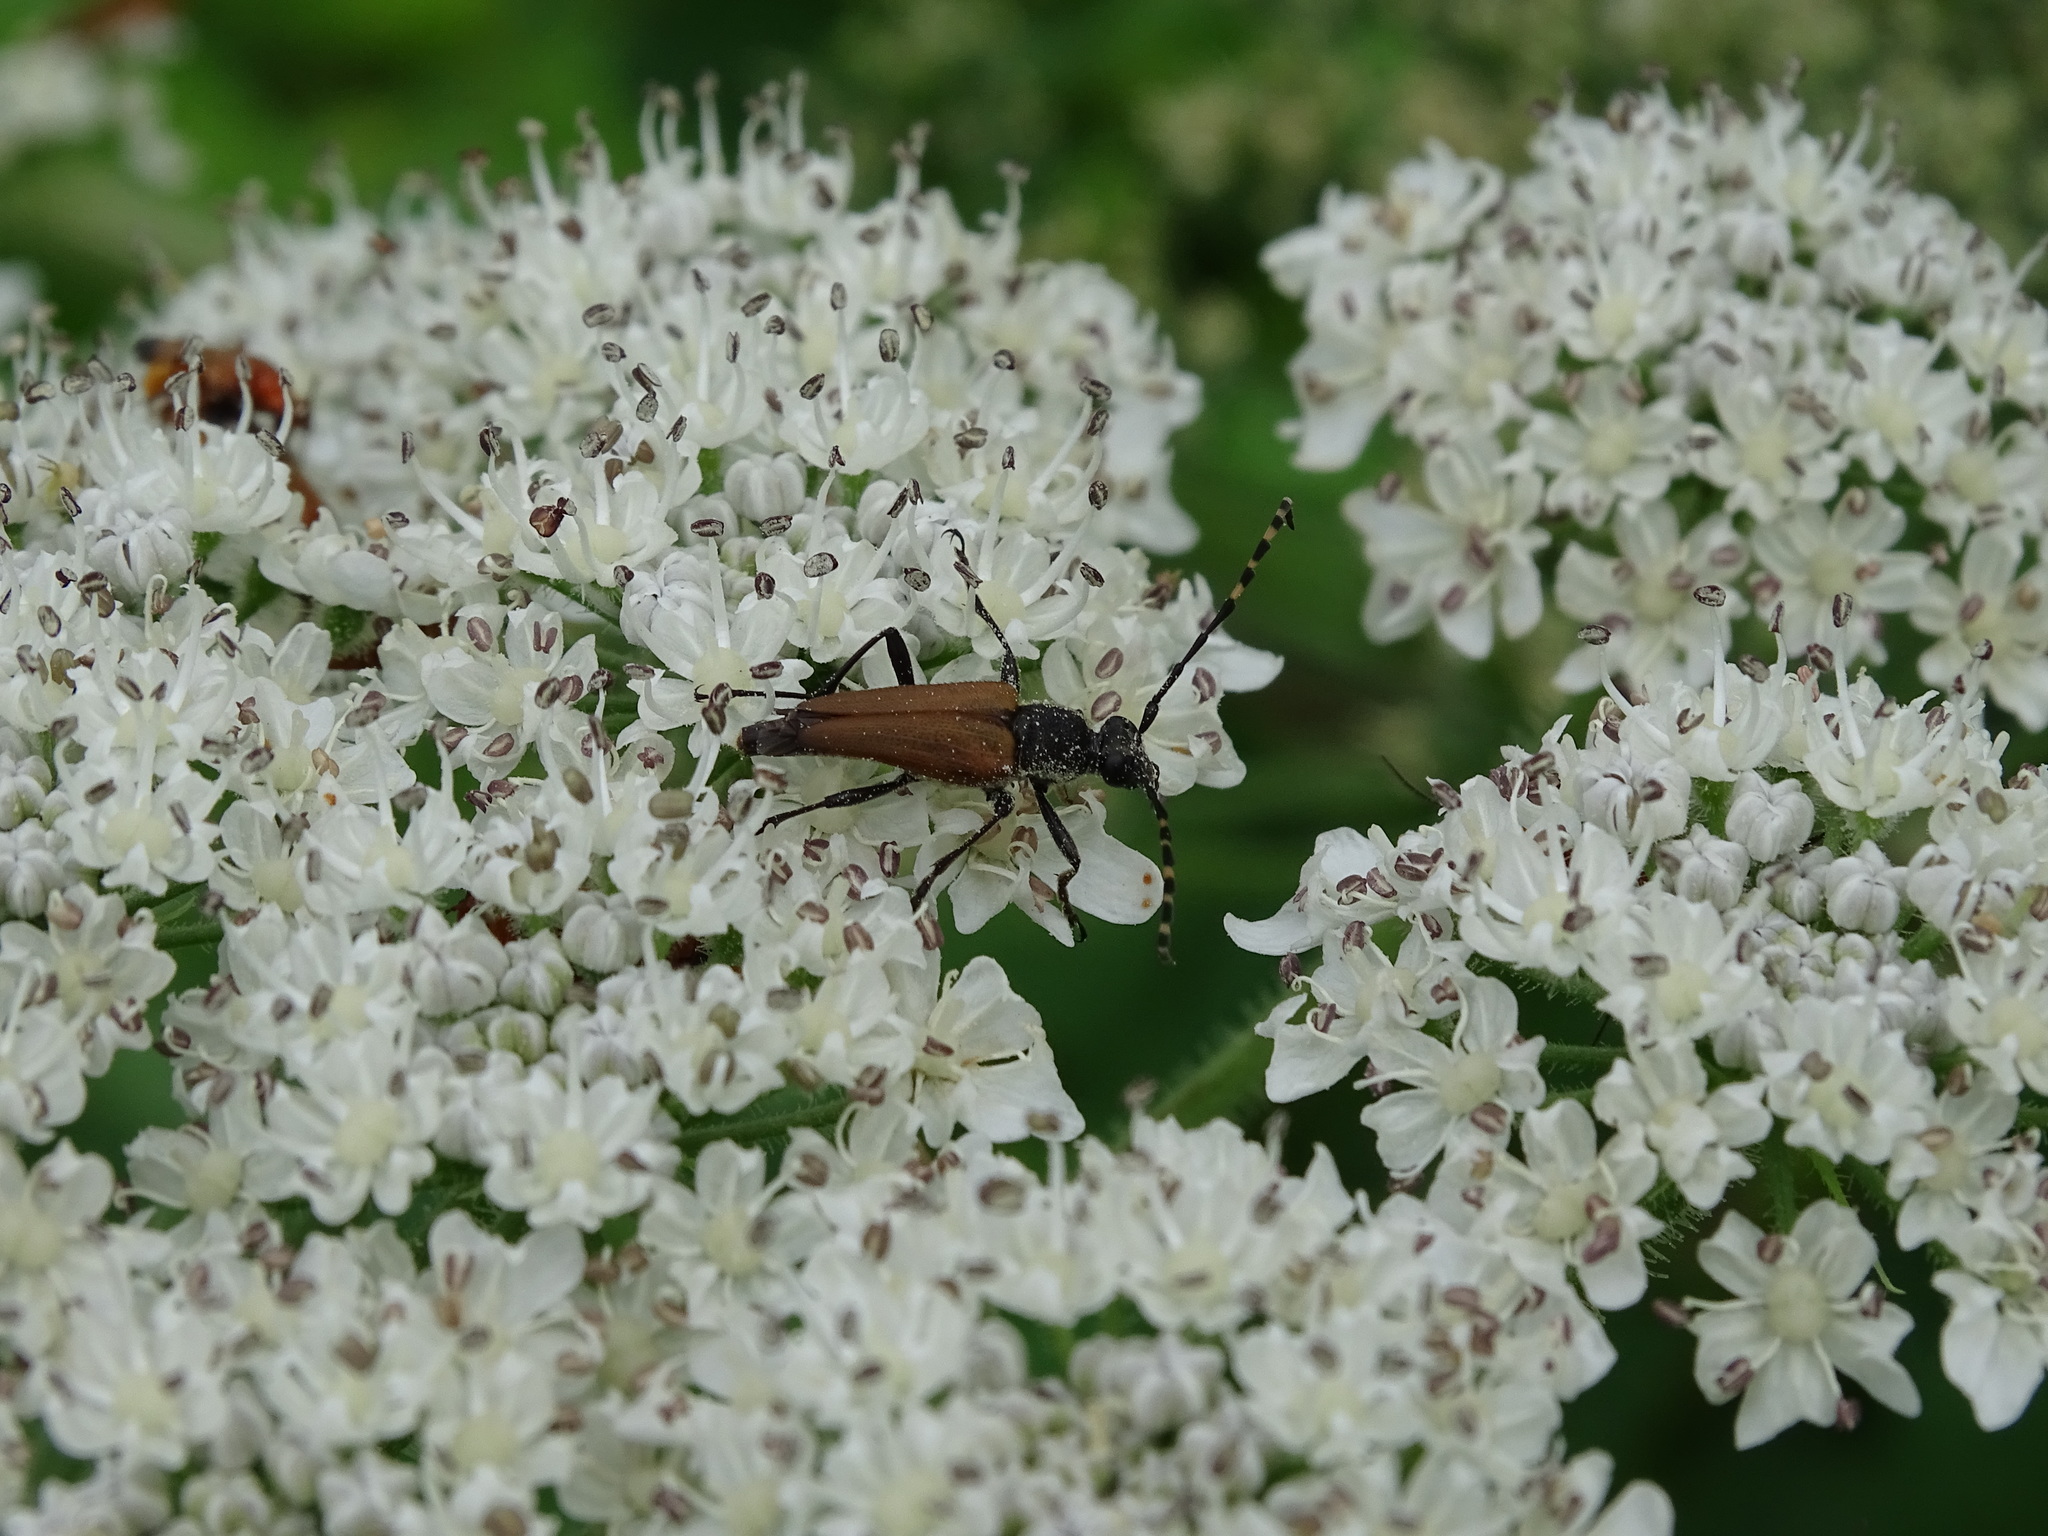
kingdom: Animalia
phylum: Arthropoda
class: Insecta
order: Coleoptera
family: Cerambycidae
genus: Brachyleptura
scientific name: Brachyleptura rubrica
